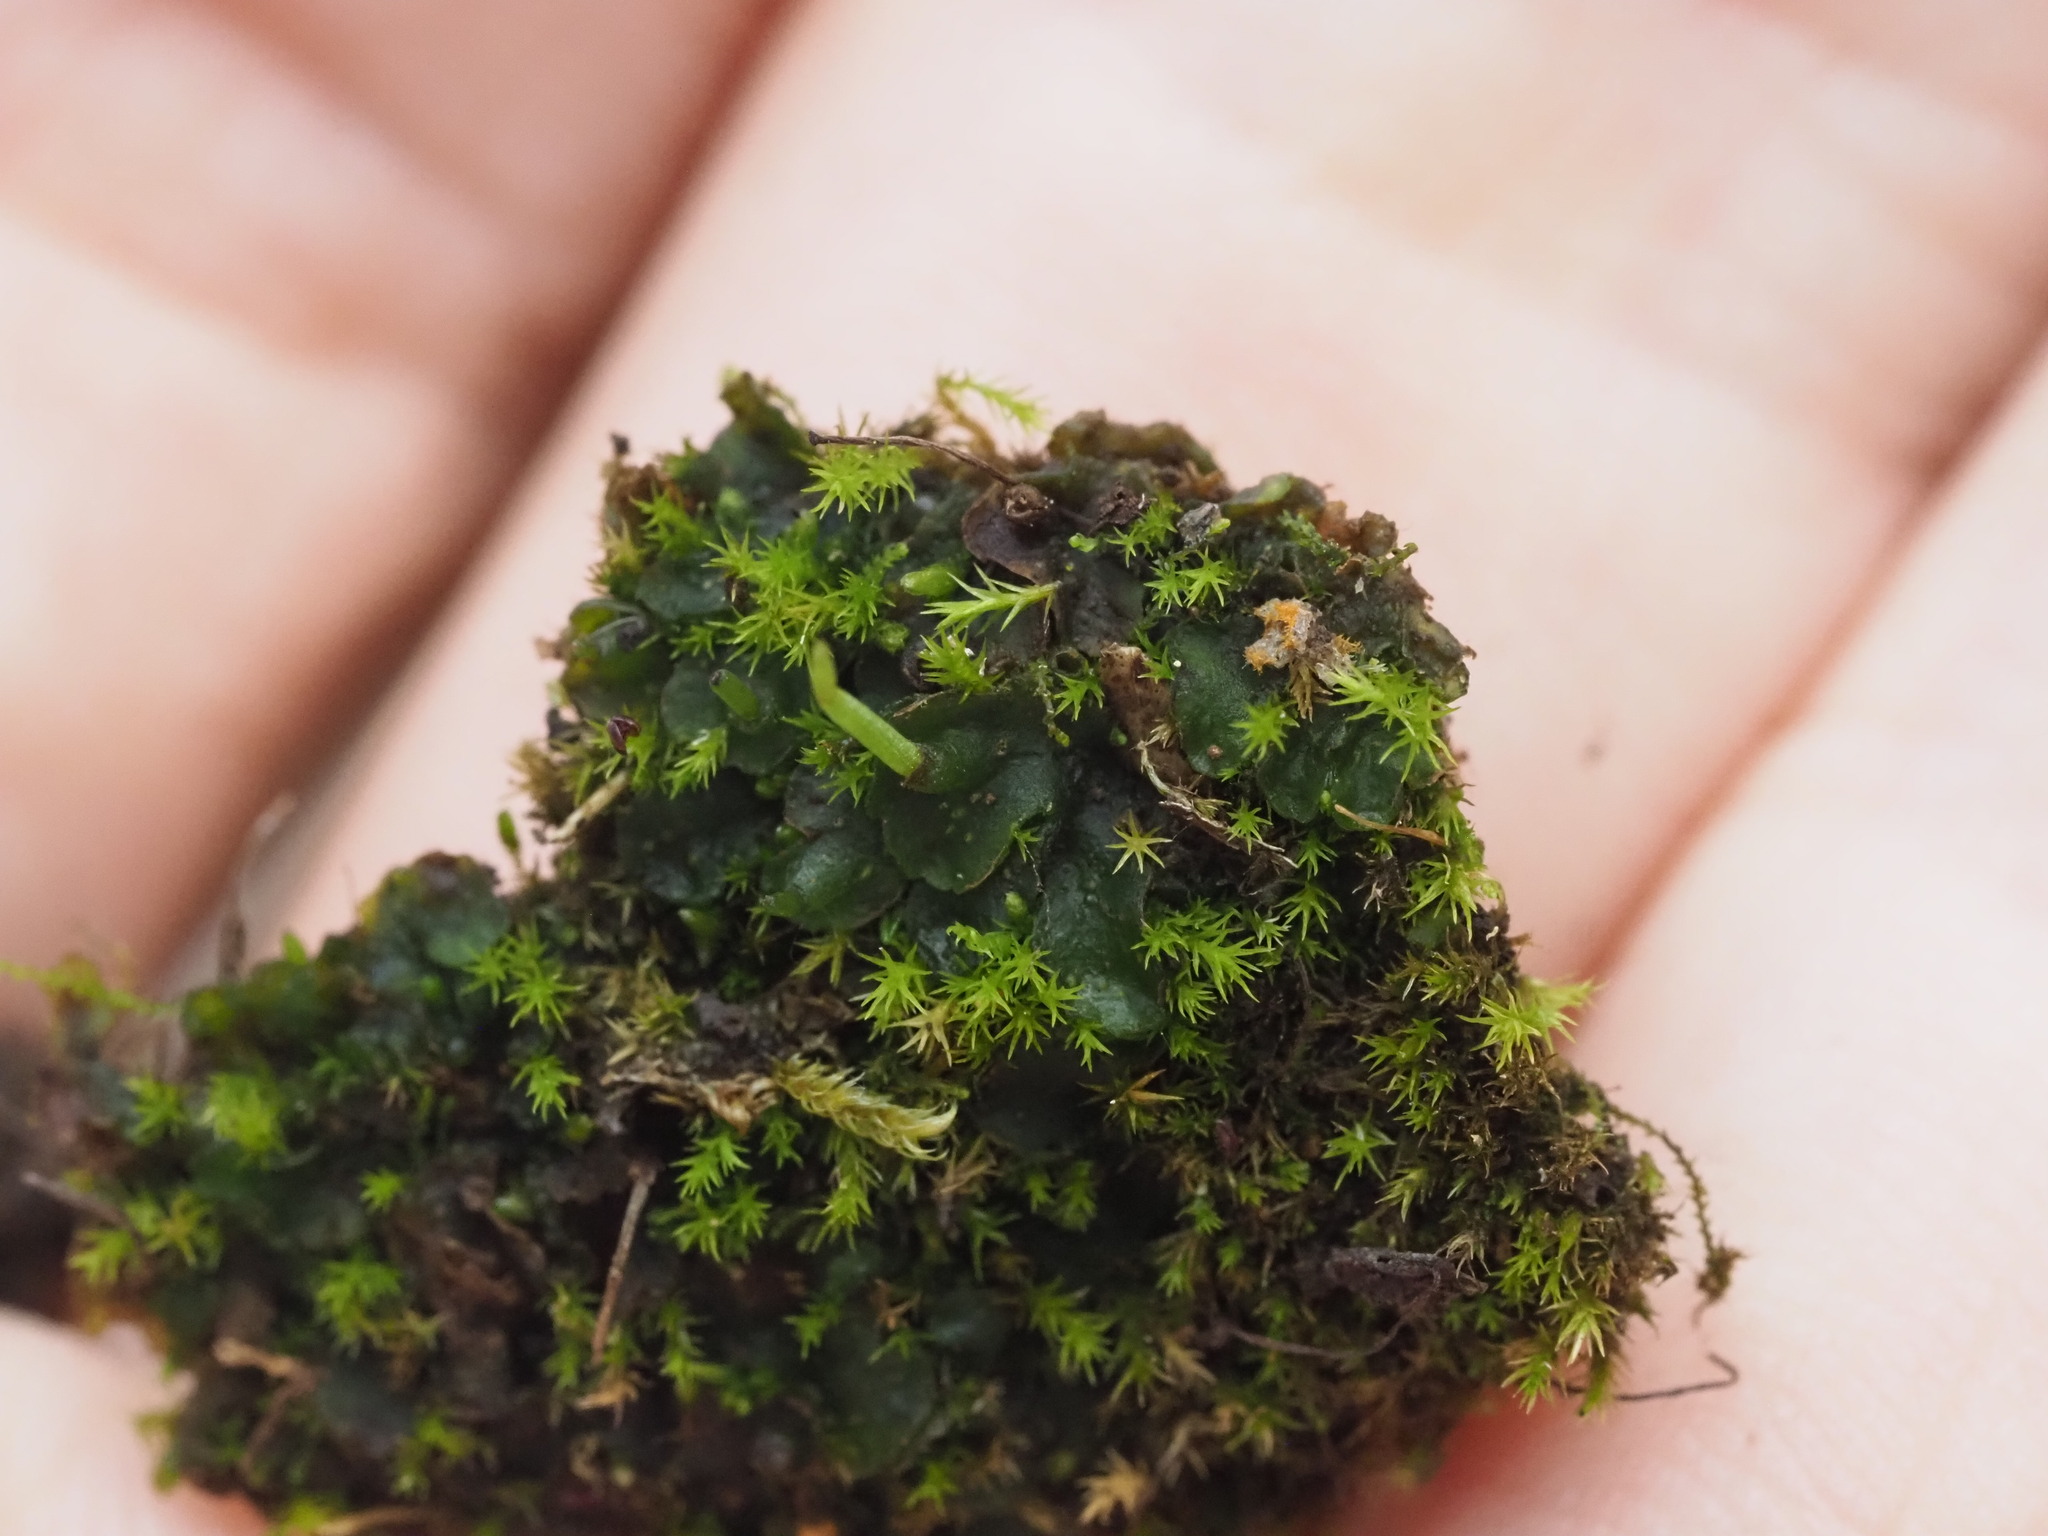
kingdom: Plantae
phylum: Anthocerotophyta
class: Anthocerotopsida
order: Notothyladales
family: Notothyladaceae
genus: Phaeoceros
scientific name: Phaeoceros carolinianus
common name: Carolina hornwort
